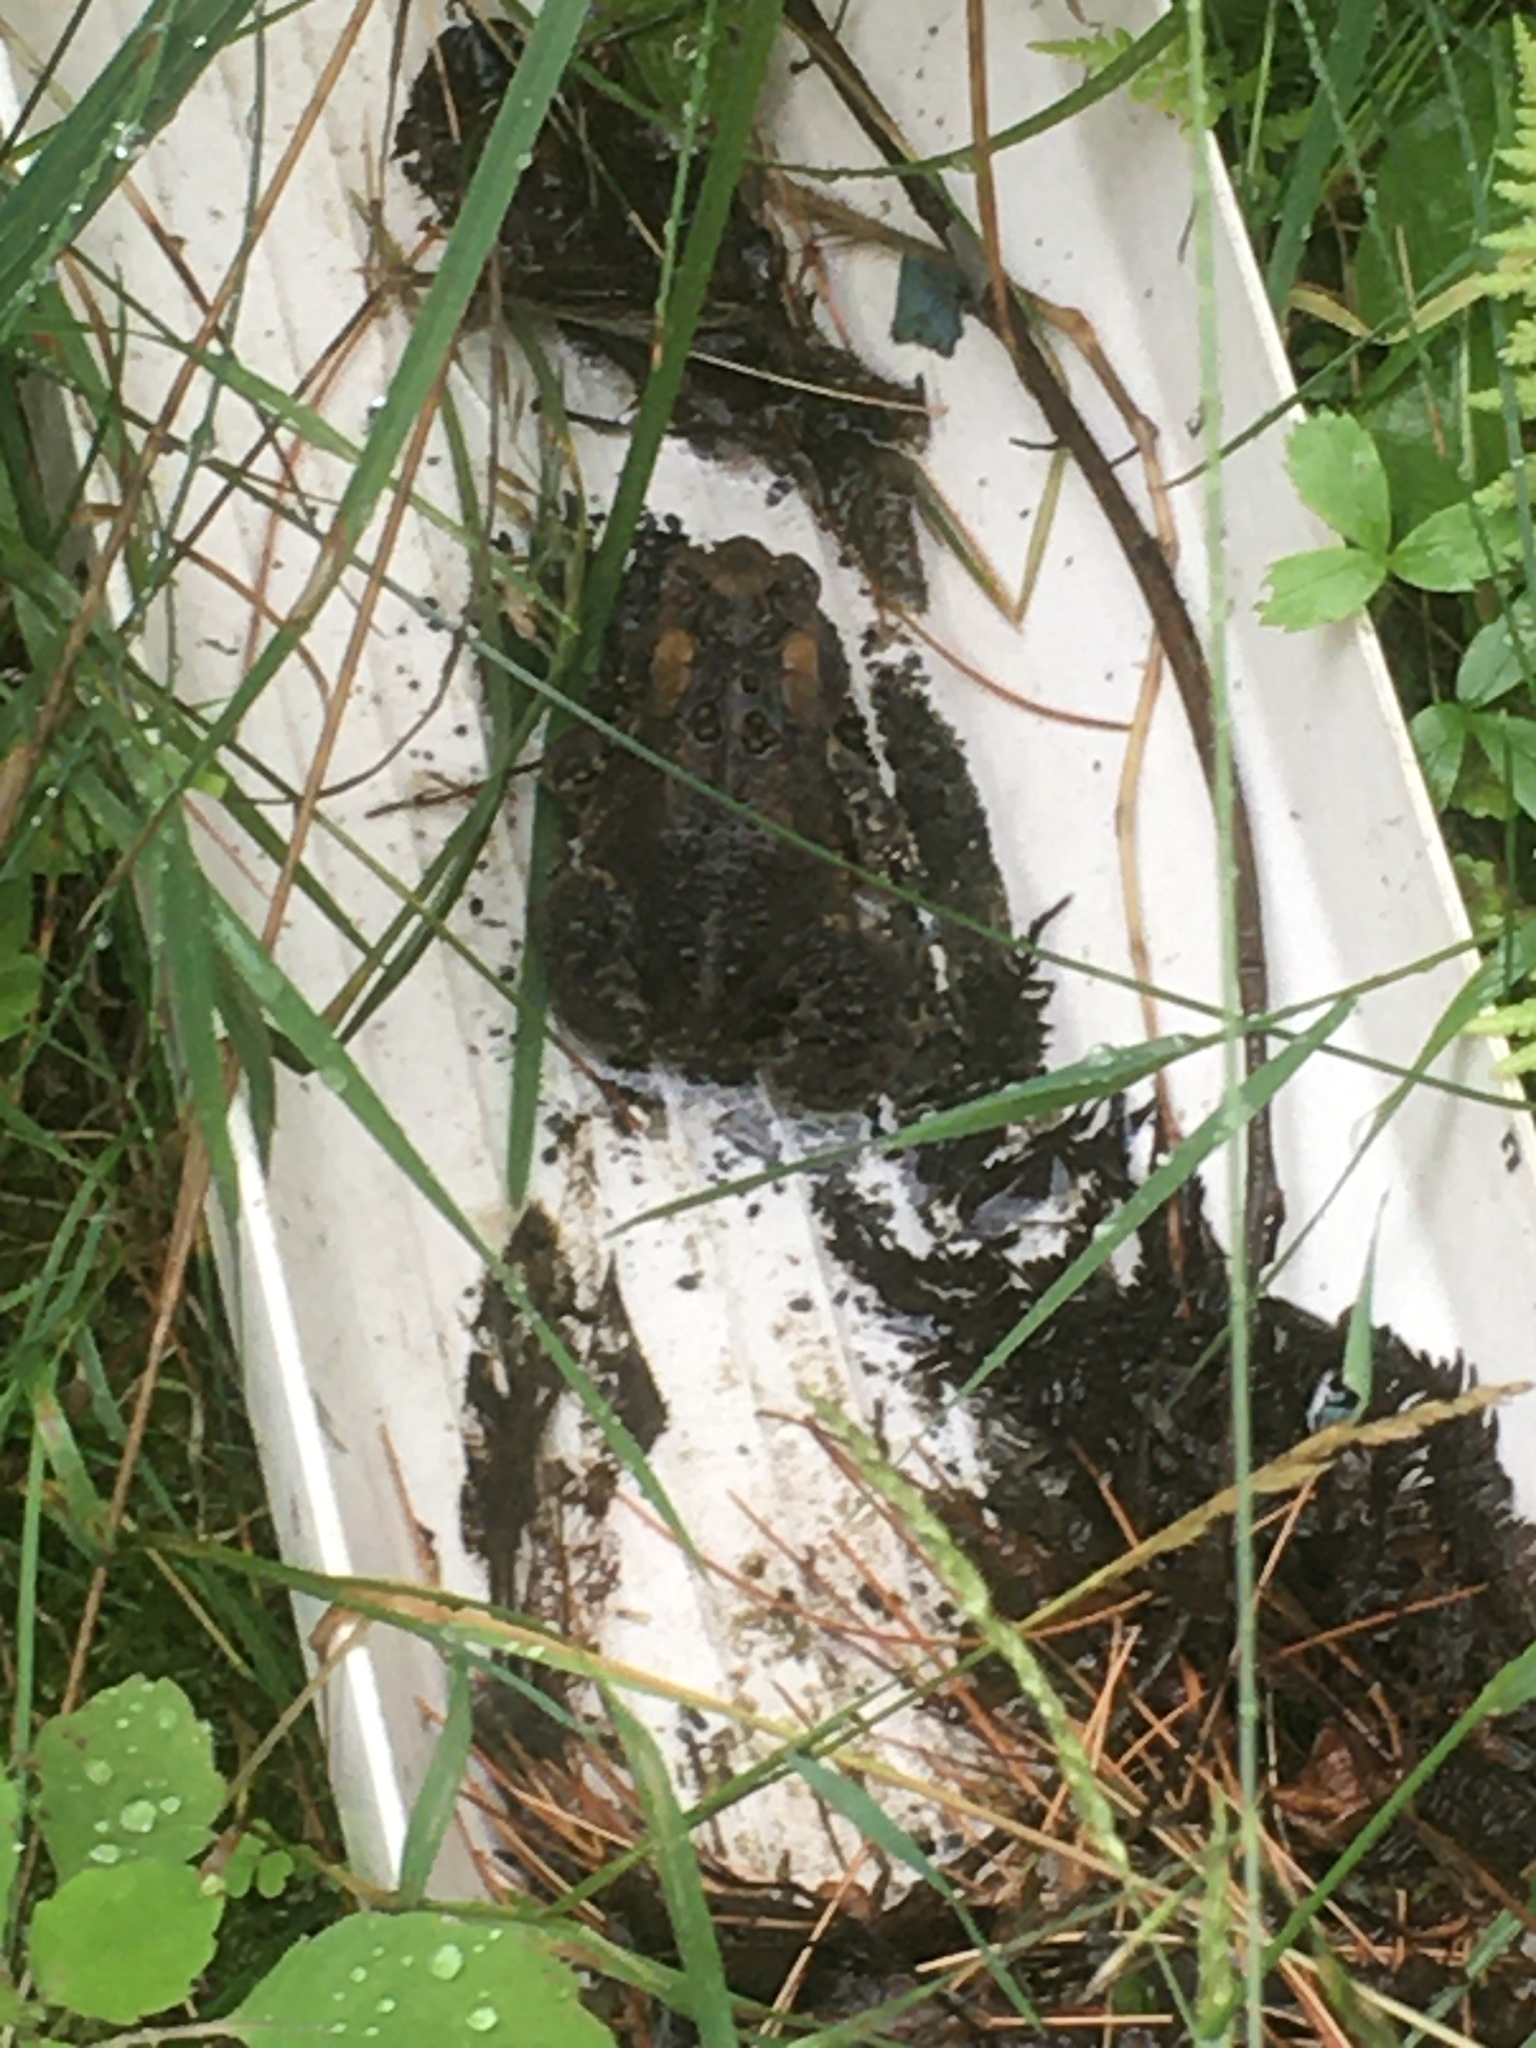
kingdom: Animalia
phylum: Chordata
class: Amphibia
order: Anura
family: Bufonidae
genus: Anaxyrus
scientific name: Anaxyrus americanus
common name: American toad
